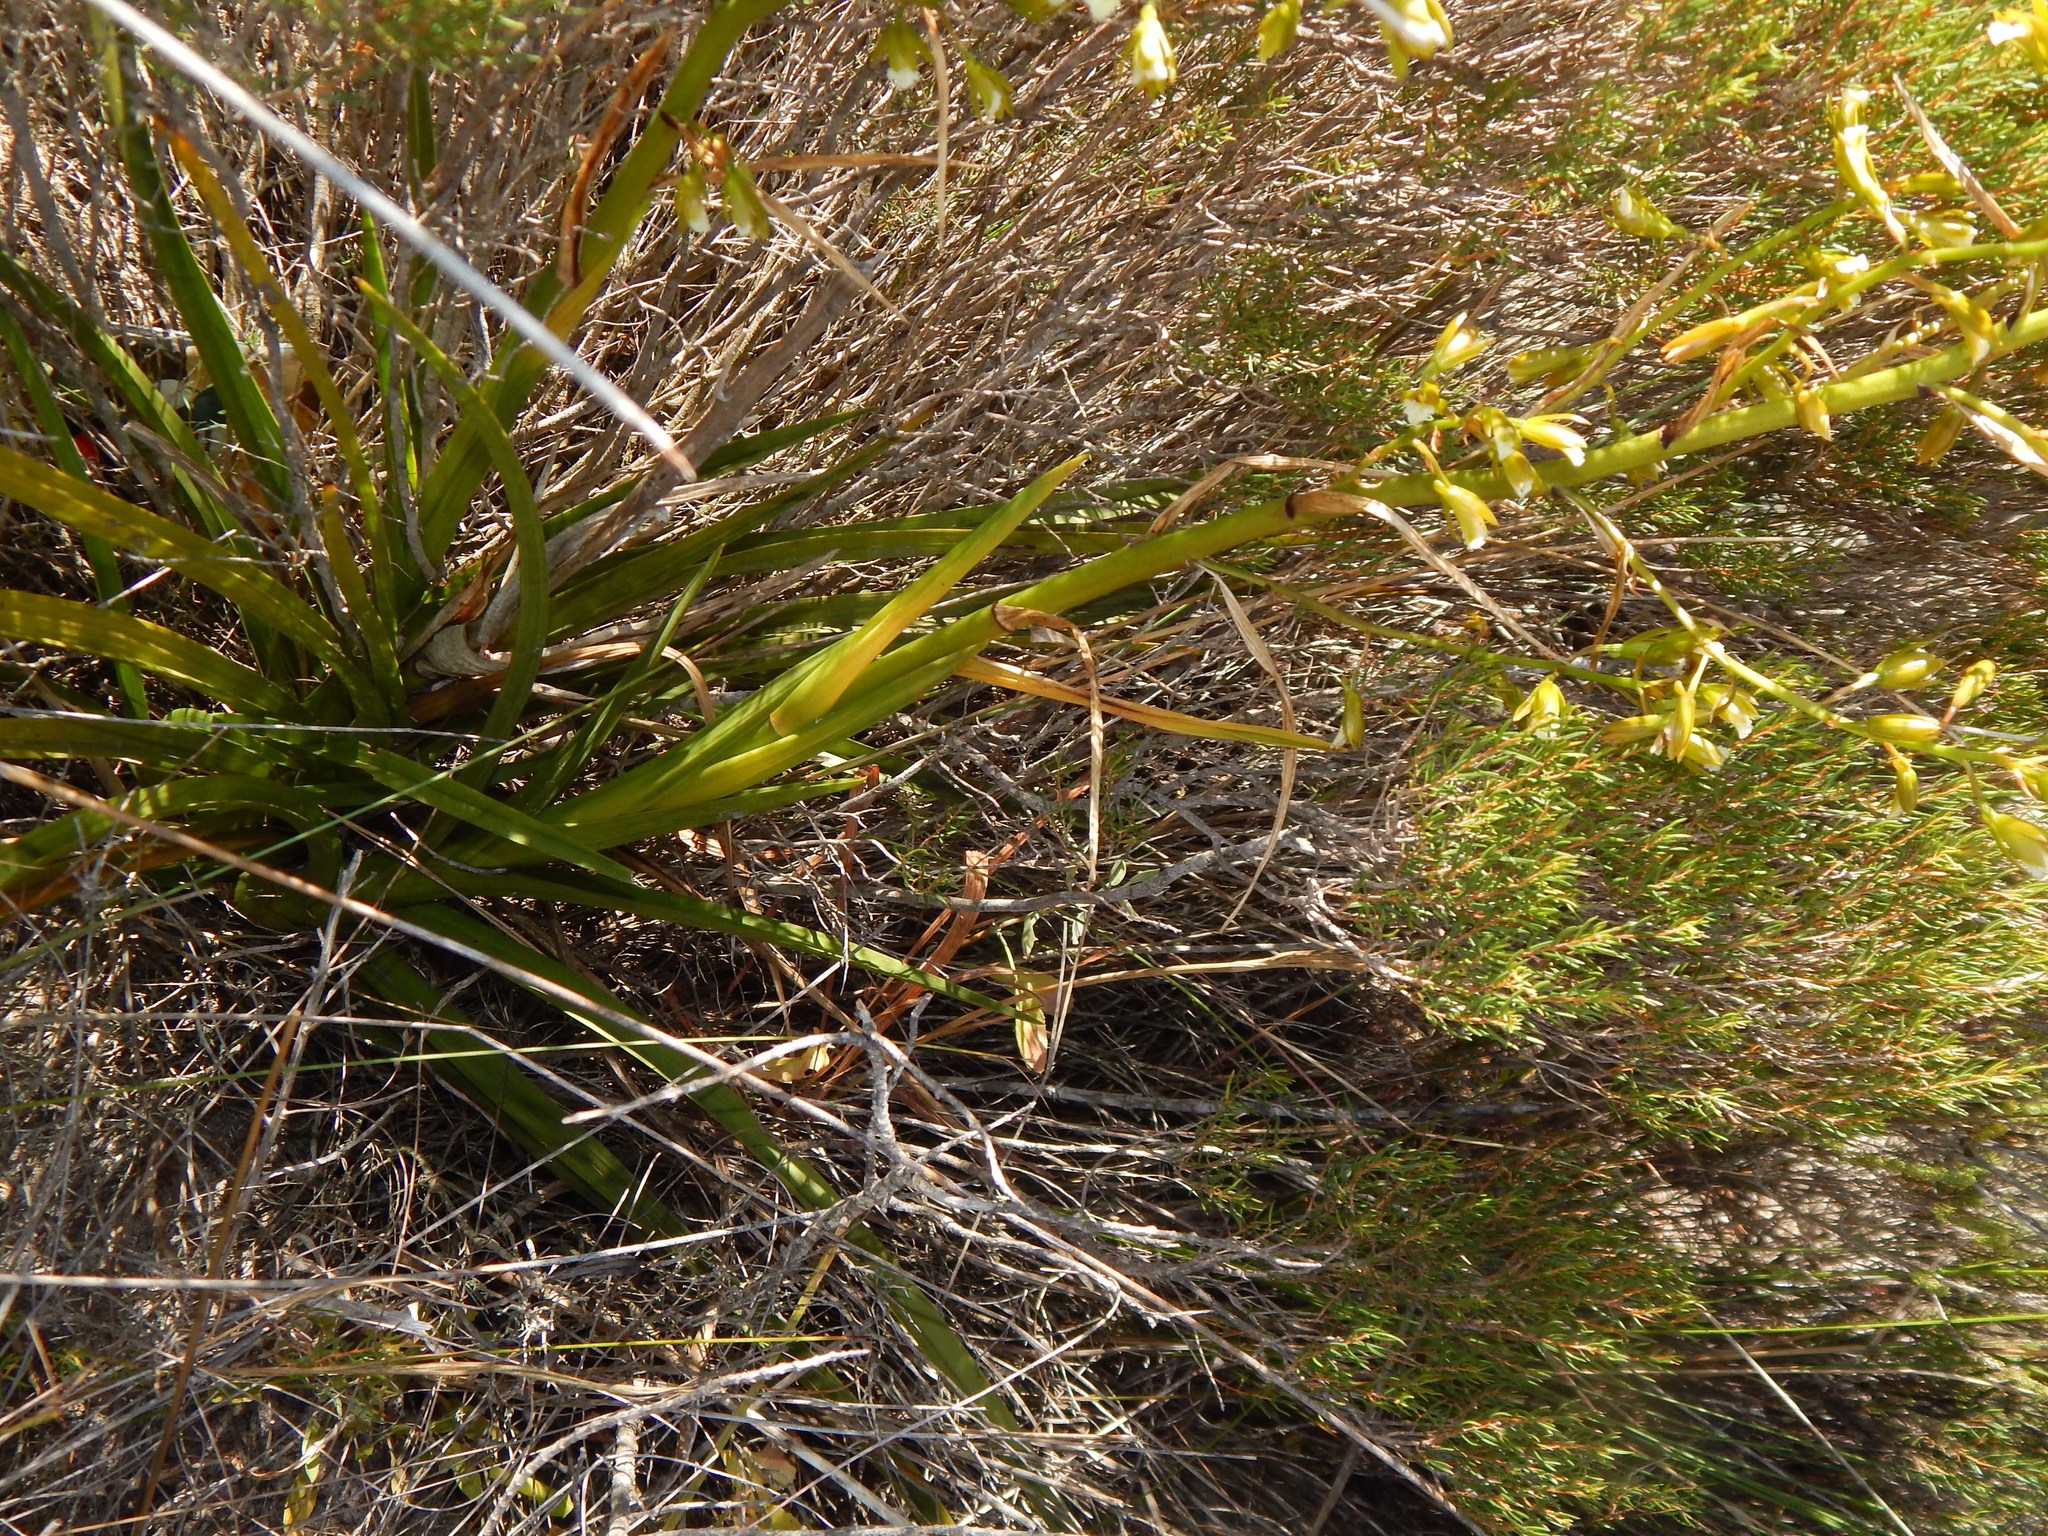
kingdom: Plantae
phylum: Tracheophyta
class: Liliopsida
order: Asparagales
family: Orchidaceae
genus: Eulophia
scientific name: Eulophia tristis
